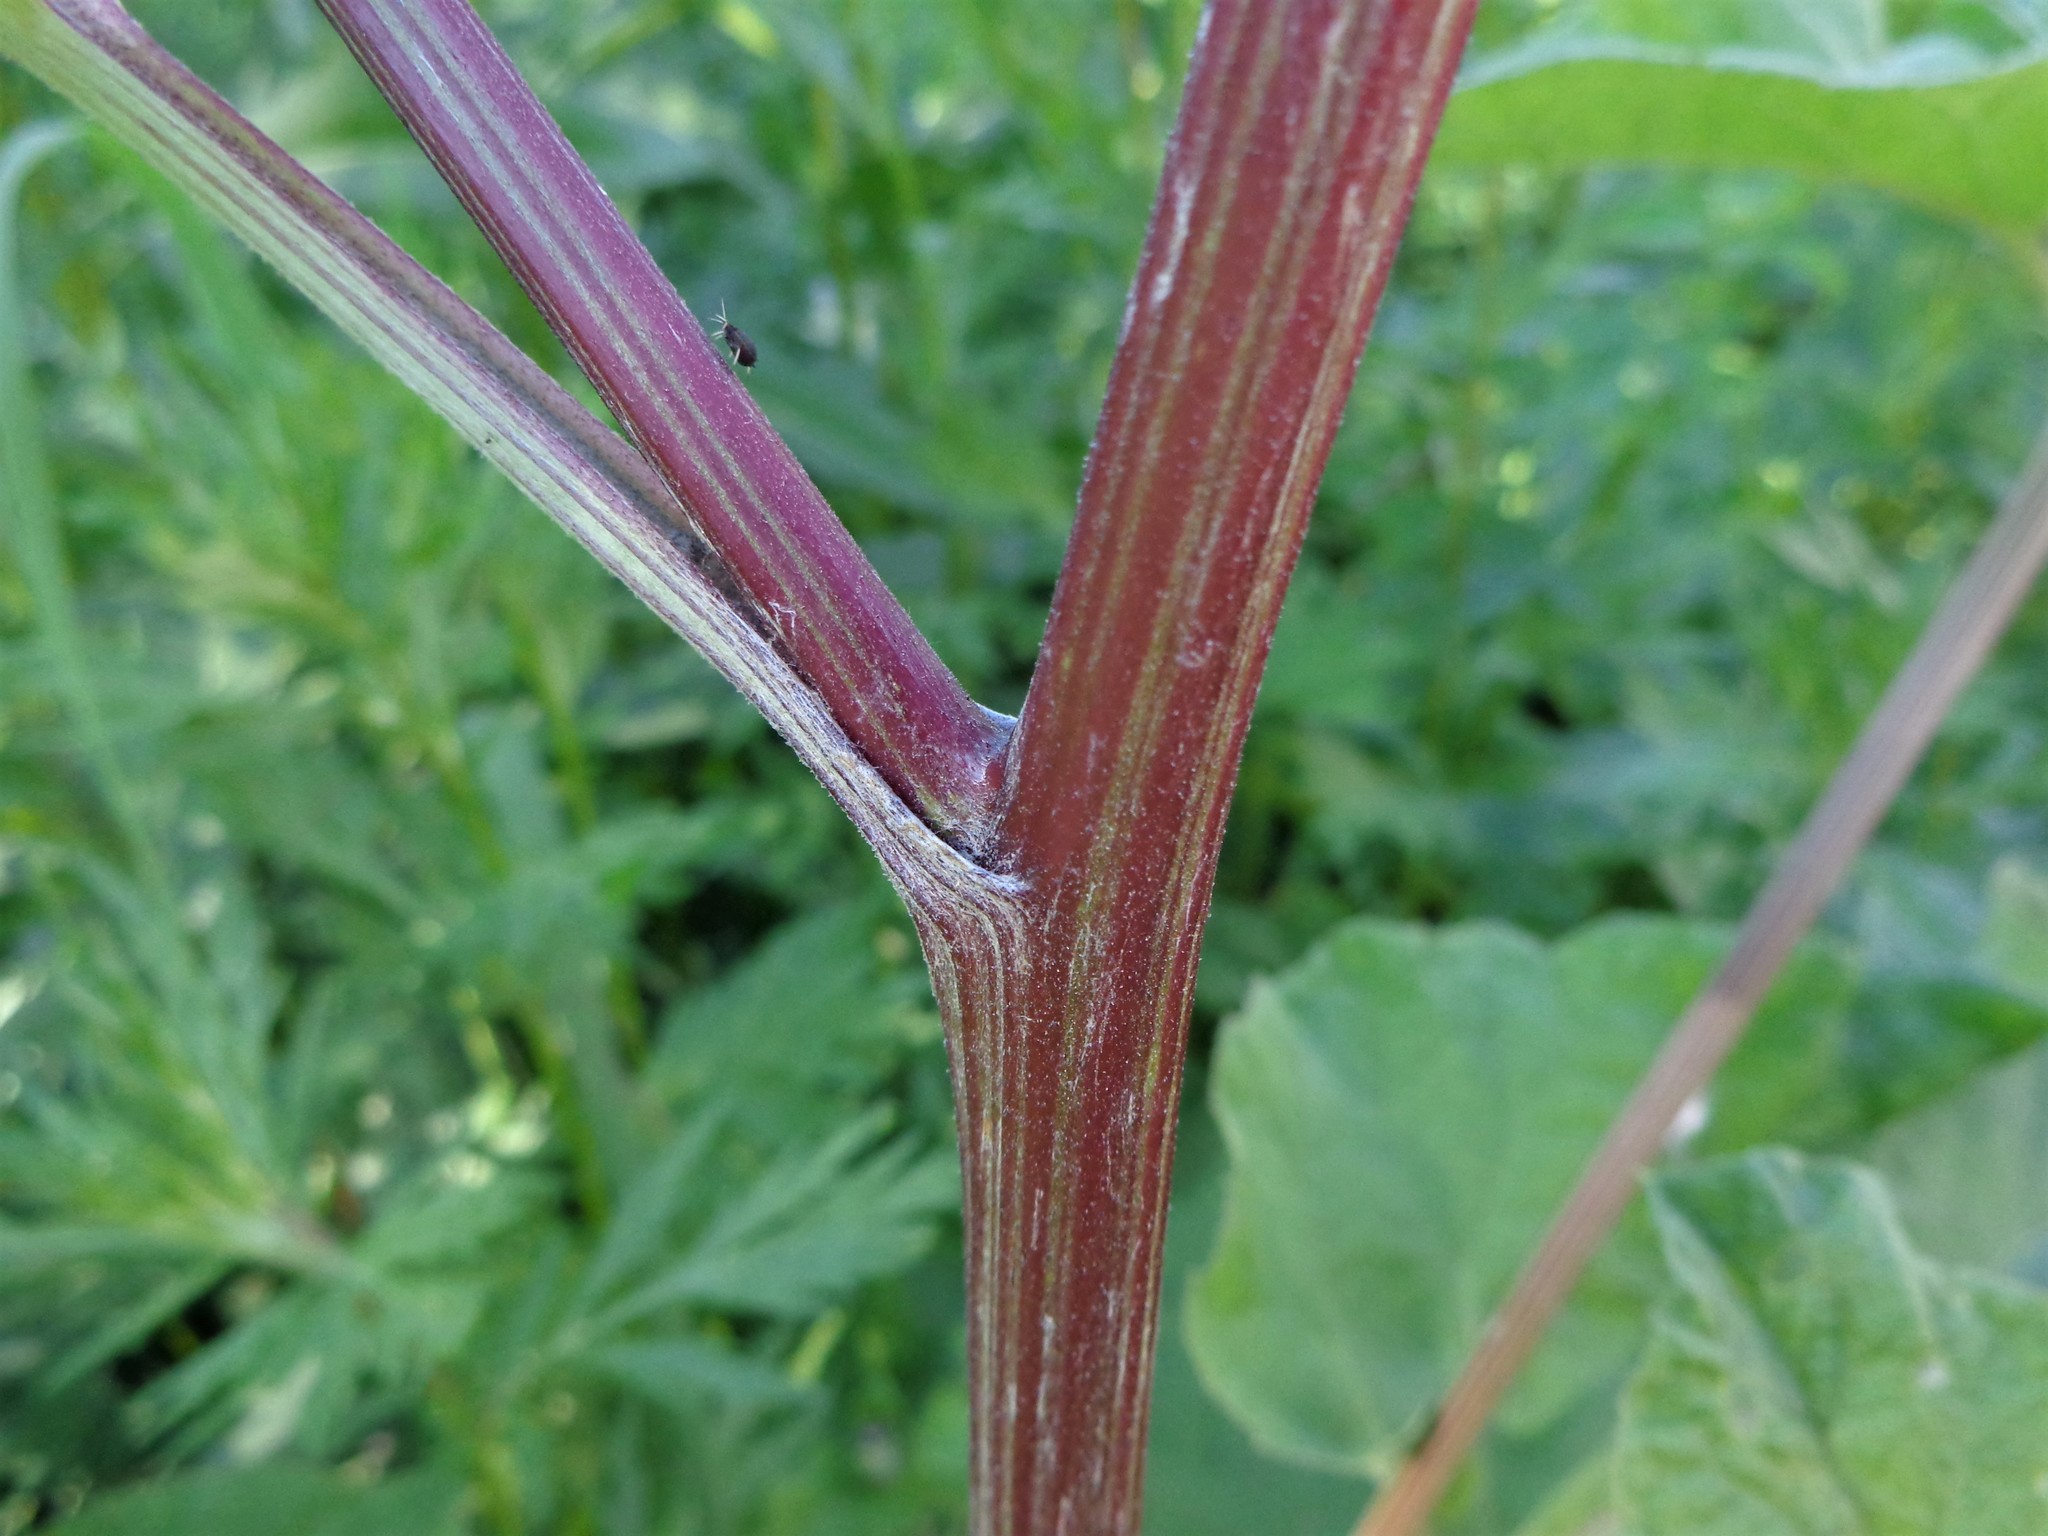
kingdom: Plantae
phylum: Tracheophyta
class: Magnoliopsida
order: Asterales
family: Asteraceae
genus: Arctium
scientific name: Arctium tomentosum
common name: Woolly burdock
